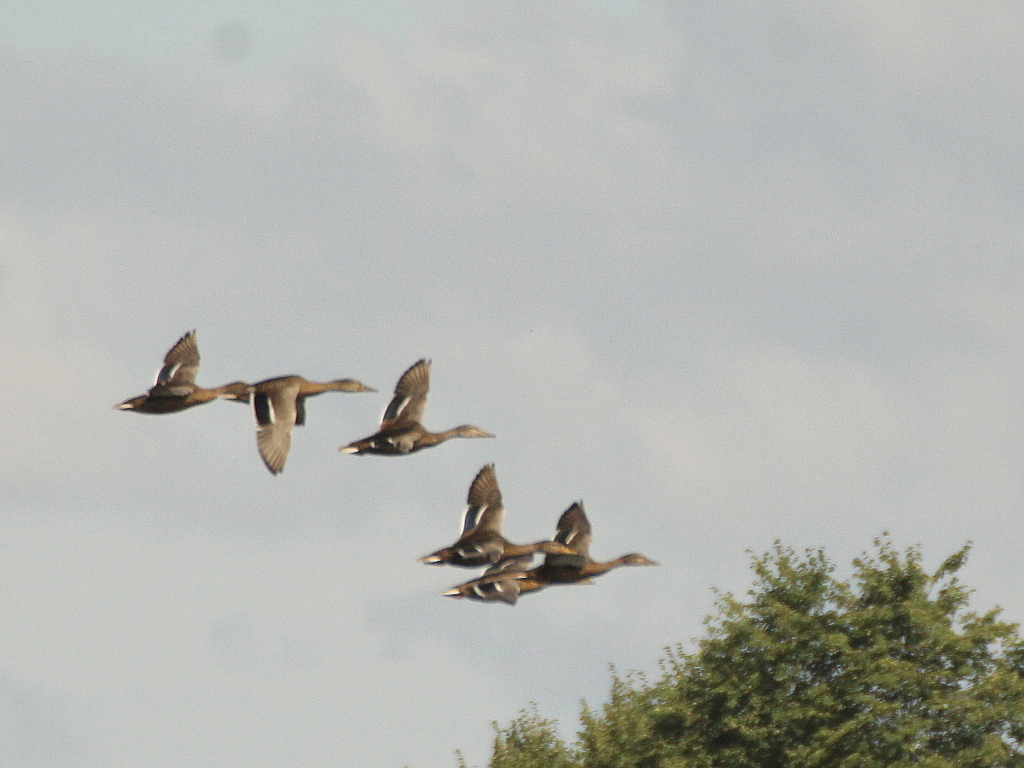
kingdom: Animalia
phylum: Chordata
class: Aves
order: Anseriformes
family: Anatidae
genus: Anas
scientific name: Anas platyrhynchos
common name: Mallard
